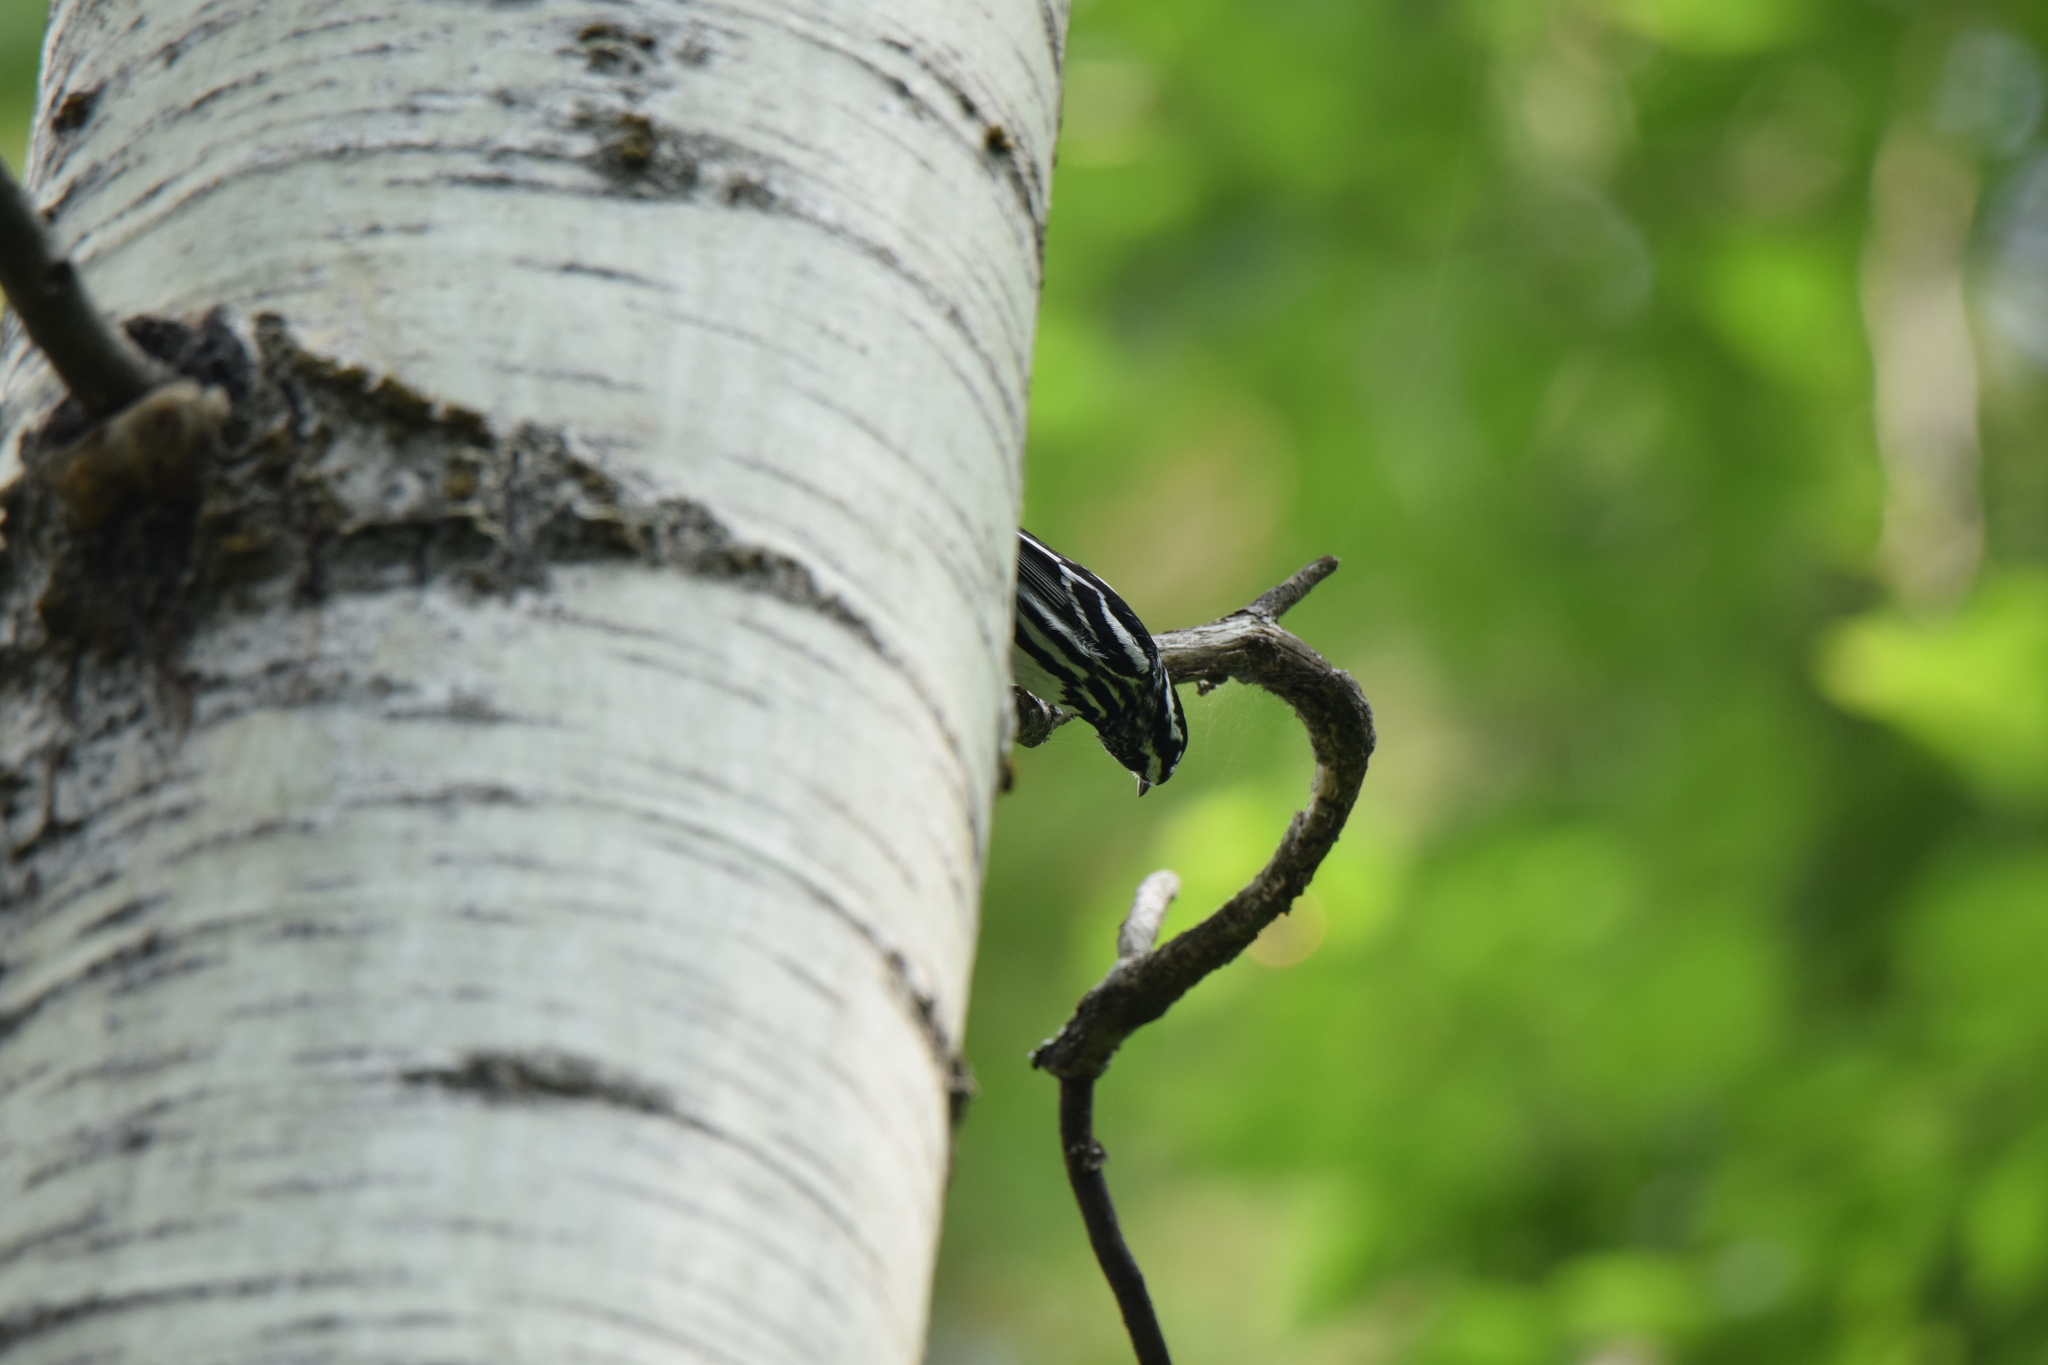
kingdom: Animalia
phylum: Chordata
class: Aves
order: Passeriformes
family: Parulidae
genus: Mniotilta
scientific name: Mniotilta varia
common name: Black-and-white warbler
